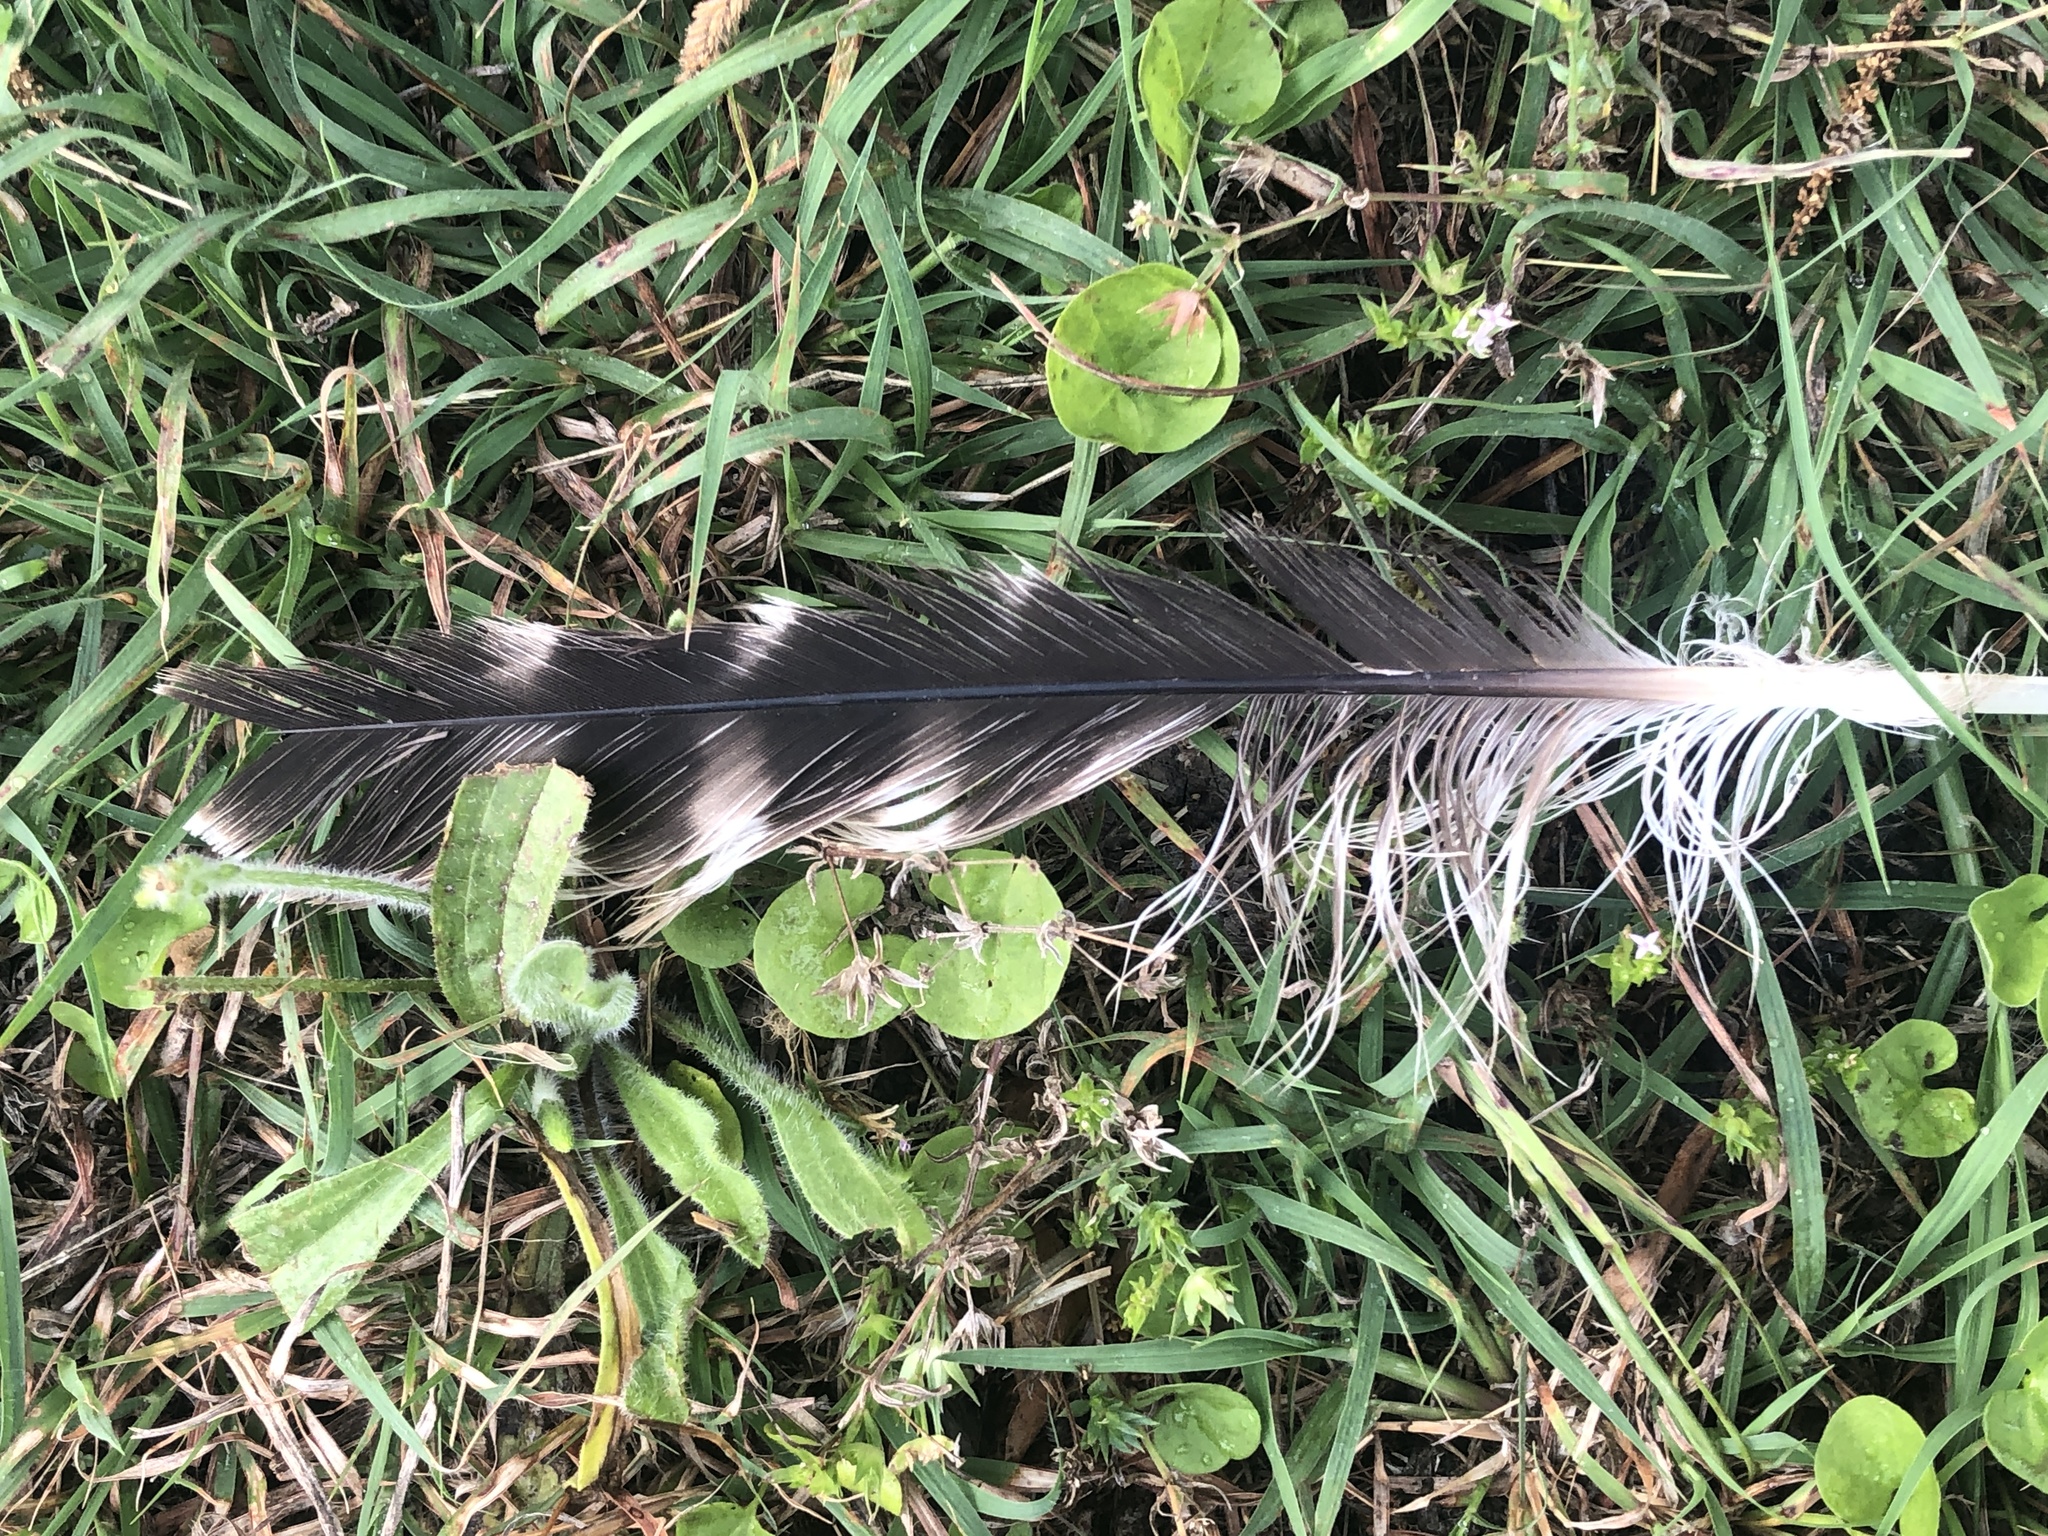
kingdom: Animalia
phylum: Chordata
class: Aves
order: Accipitriformes
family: Accipitridae
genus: Buteo
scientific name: Buteo lineatus
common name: Red-shouldered hawk
